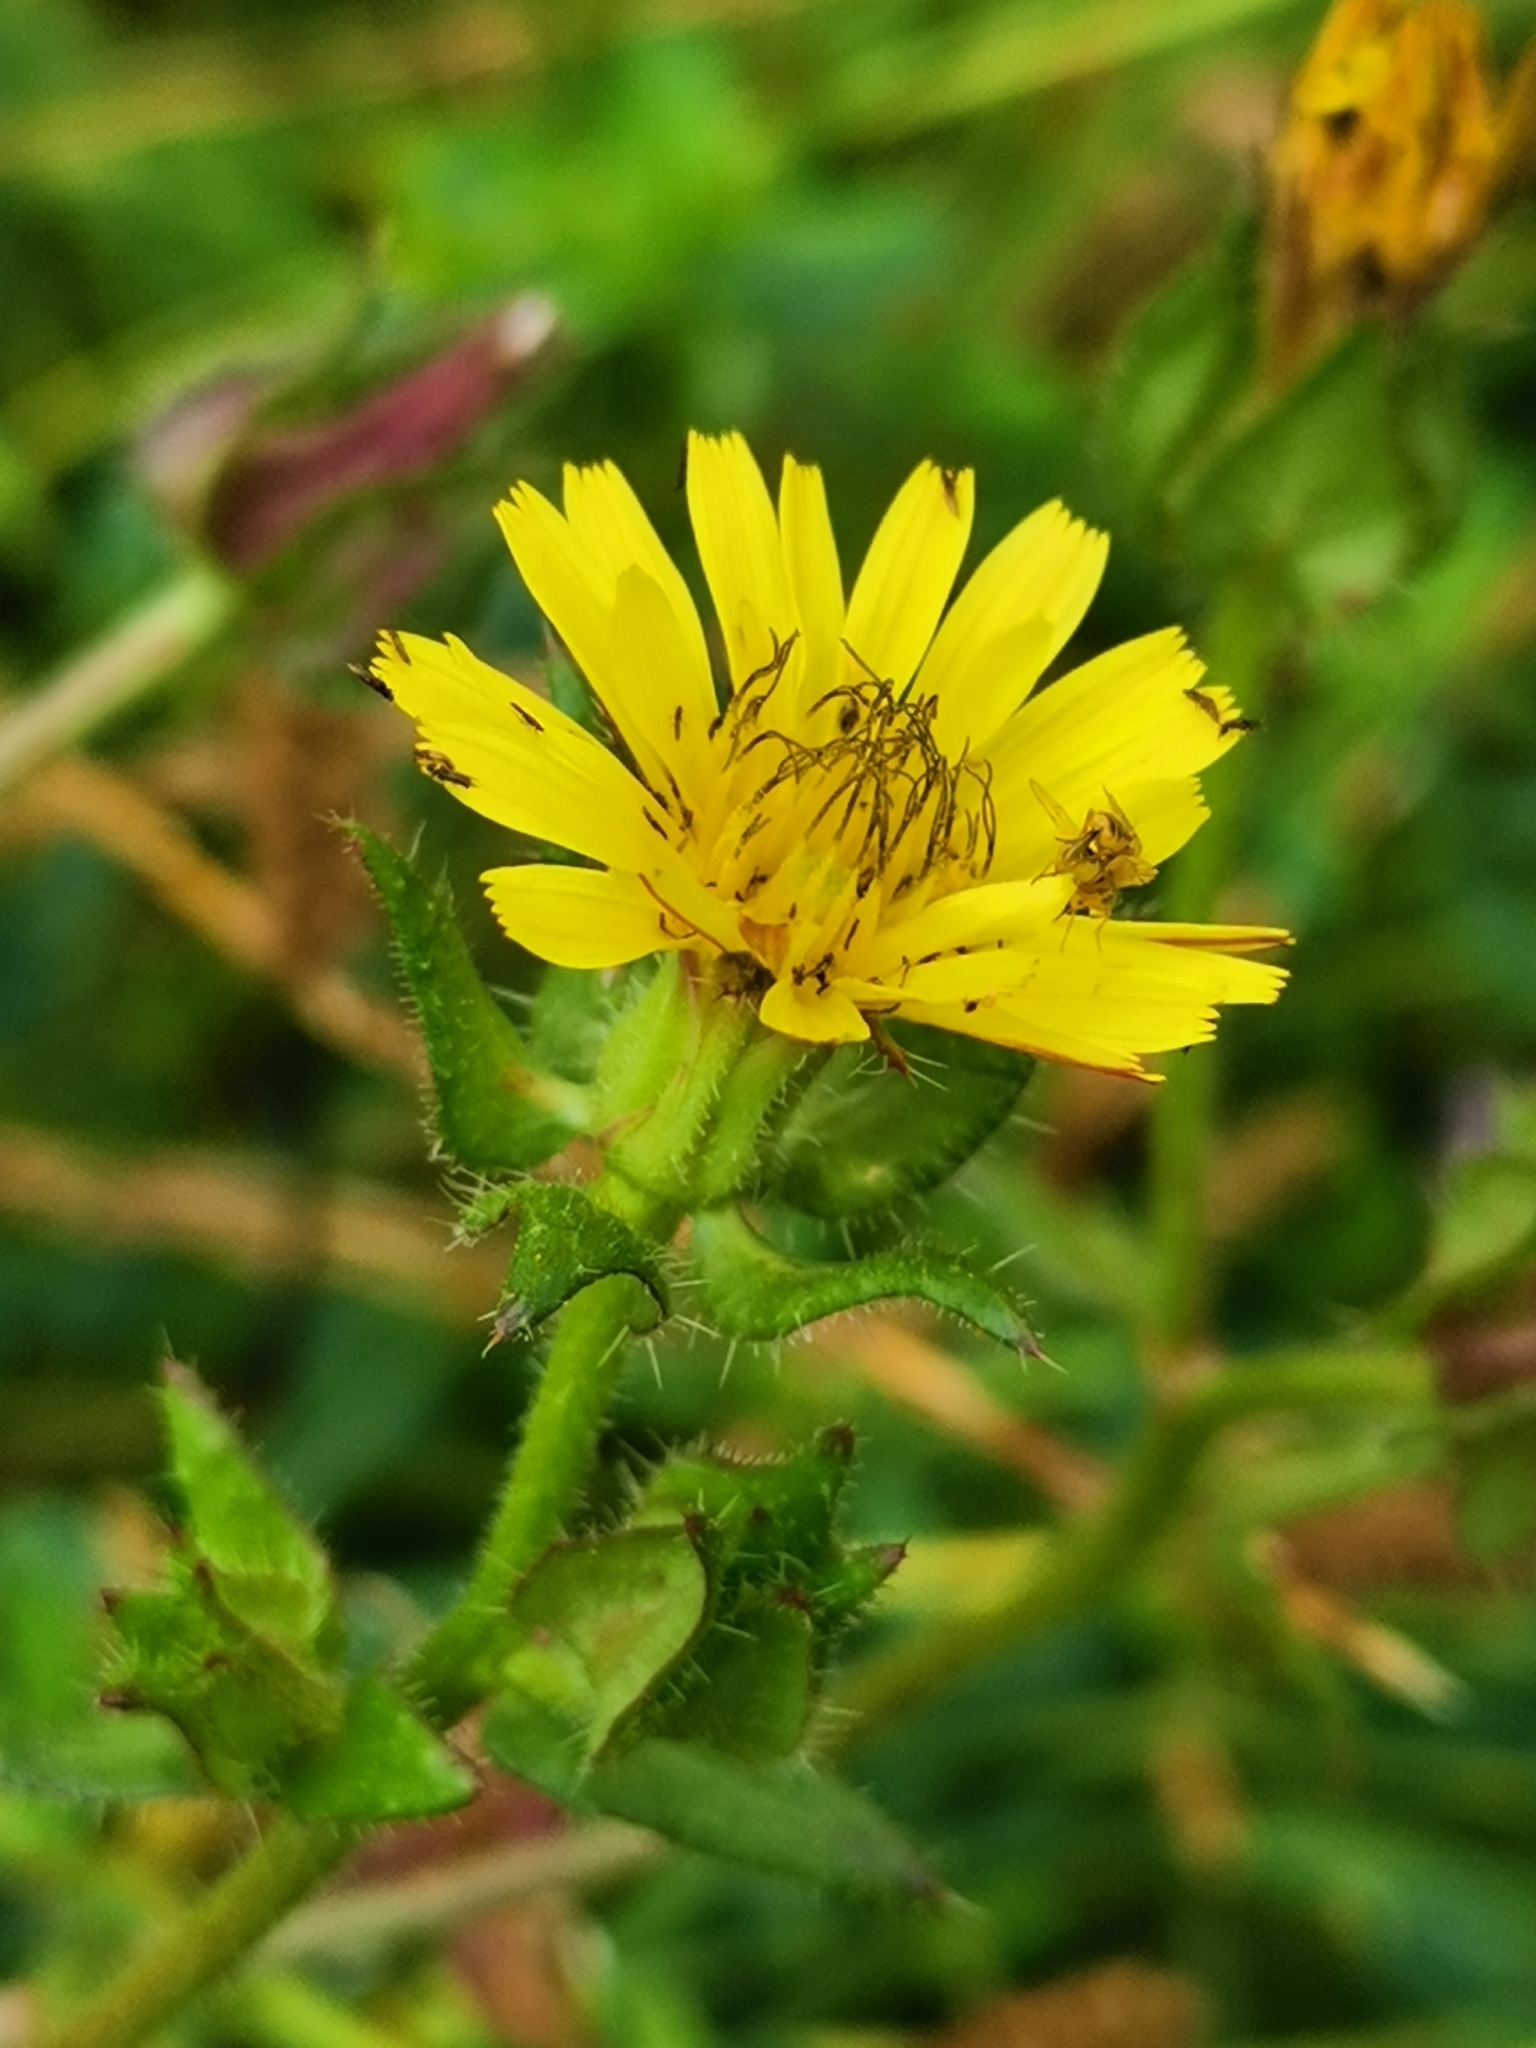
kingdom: Plantae
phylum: Tracheophyta
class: Magnoliopsida
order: Asterales
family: Asteraceae
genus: Helminthotheca
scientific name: Helminthotheca echioides
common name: Ox-tongue
